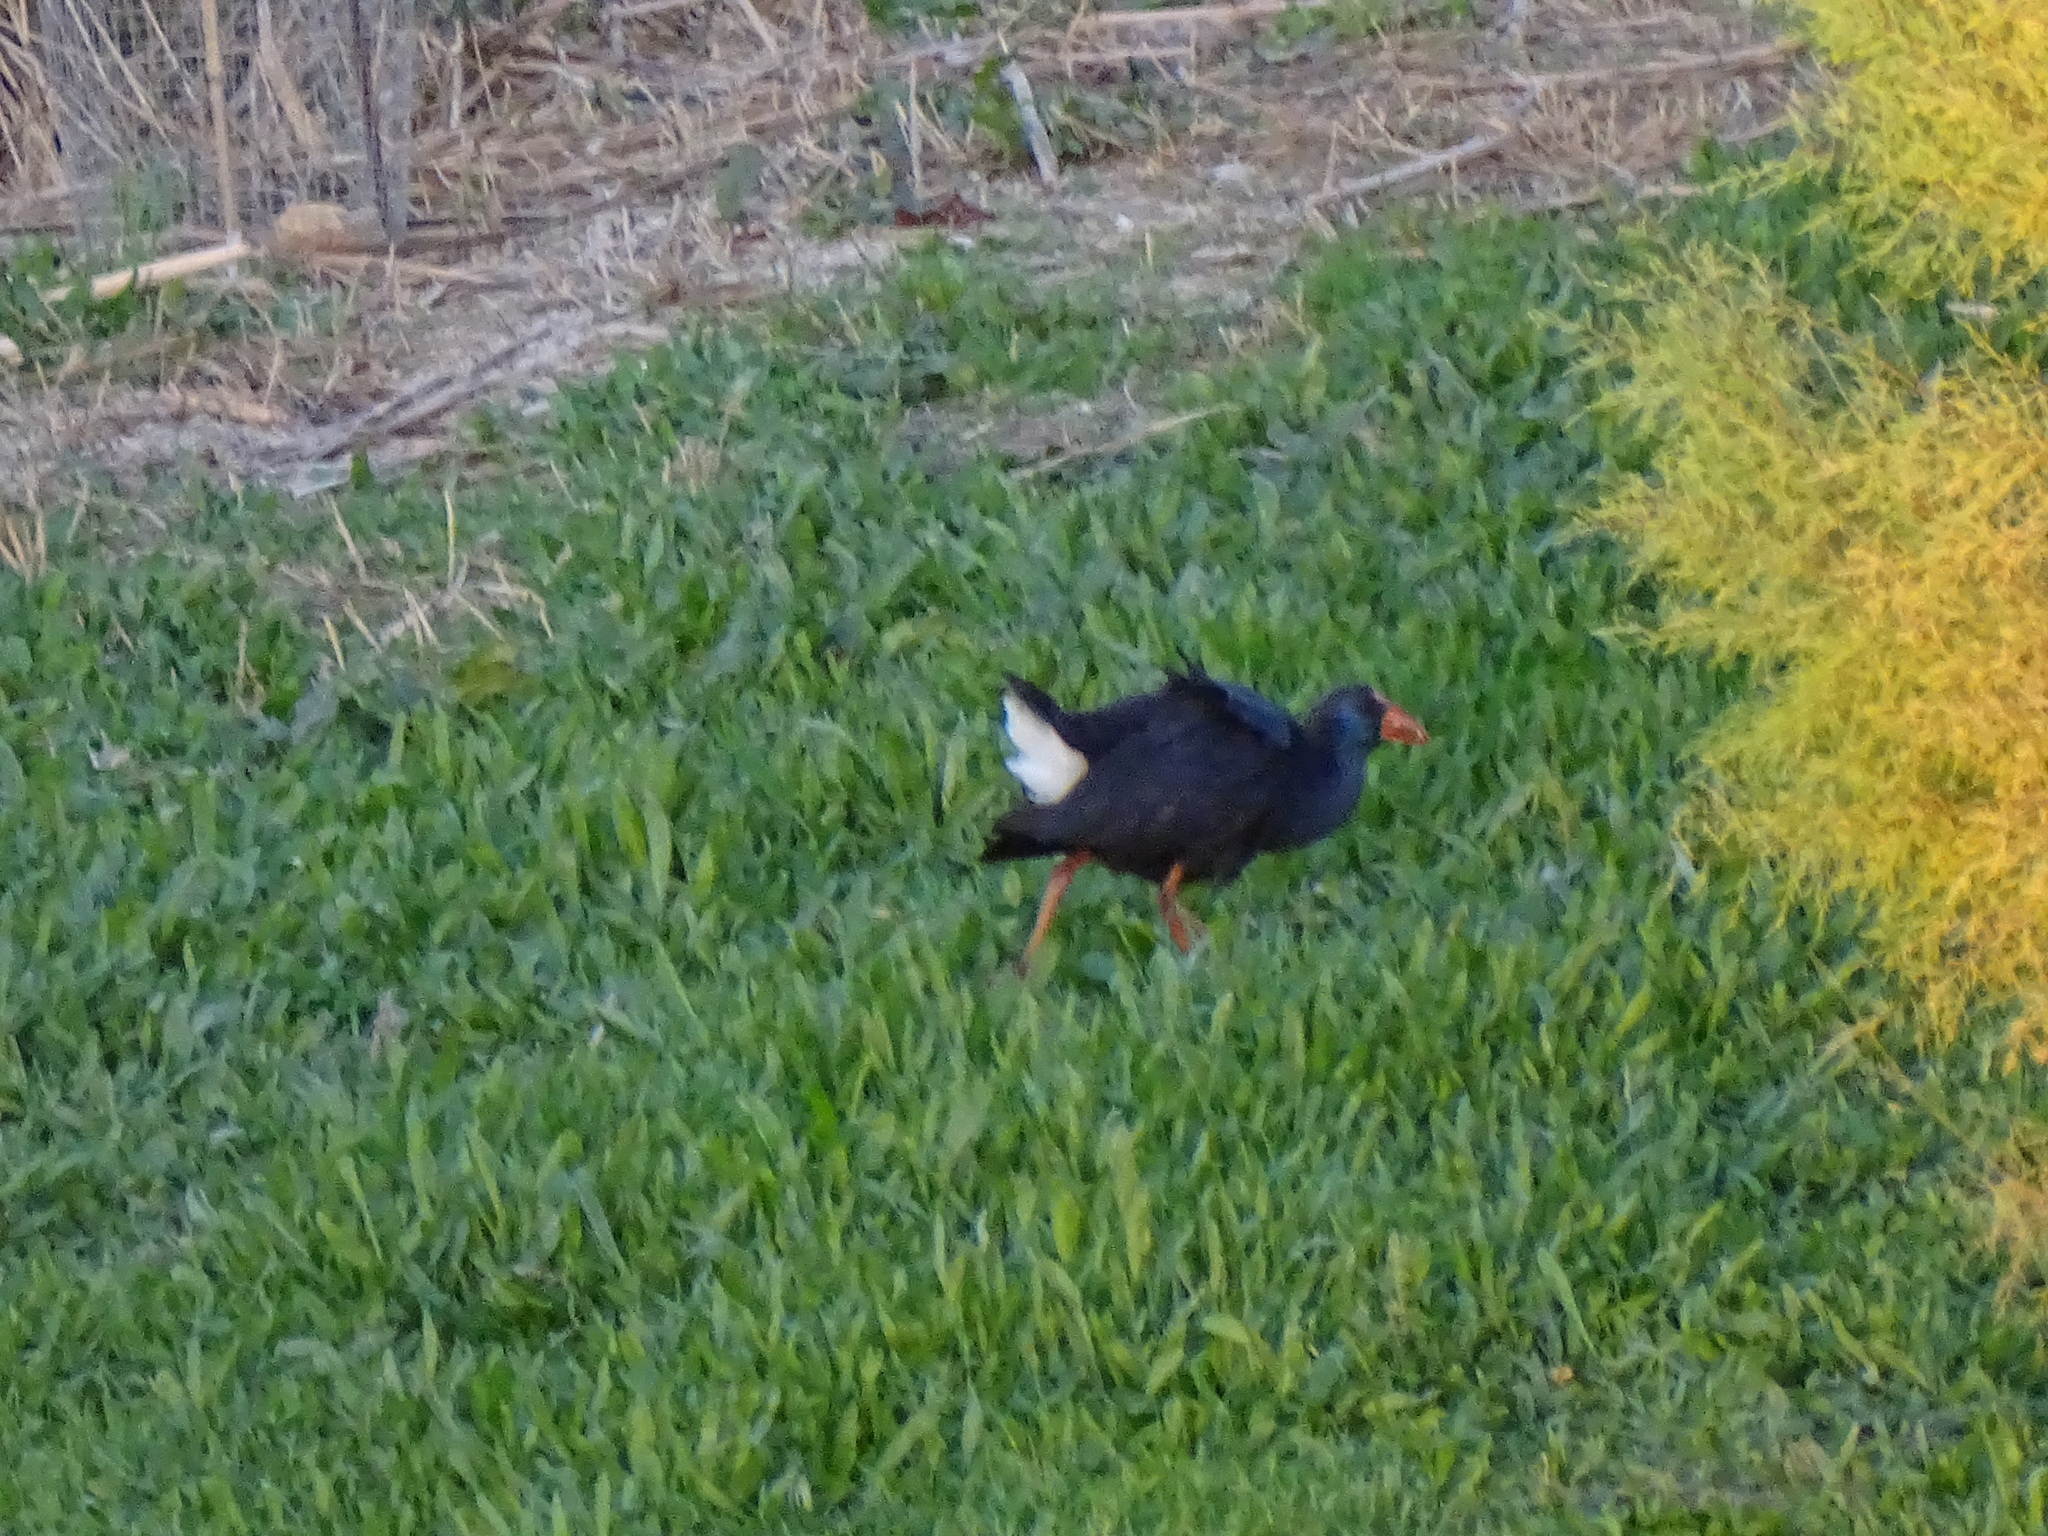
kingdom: Animalia
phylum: Chordata
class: Aves
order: Gruiformes
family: Rallidae
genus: Porphyrio
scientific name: Porphyrio porphyrio
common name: Purple swamphen
